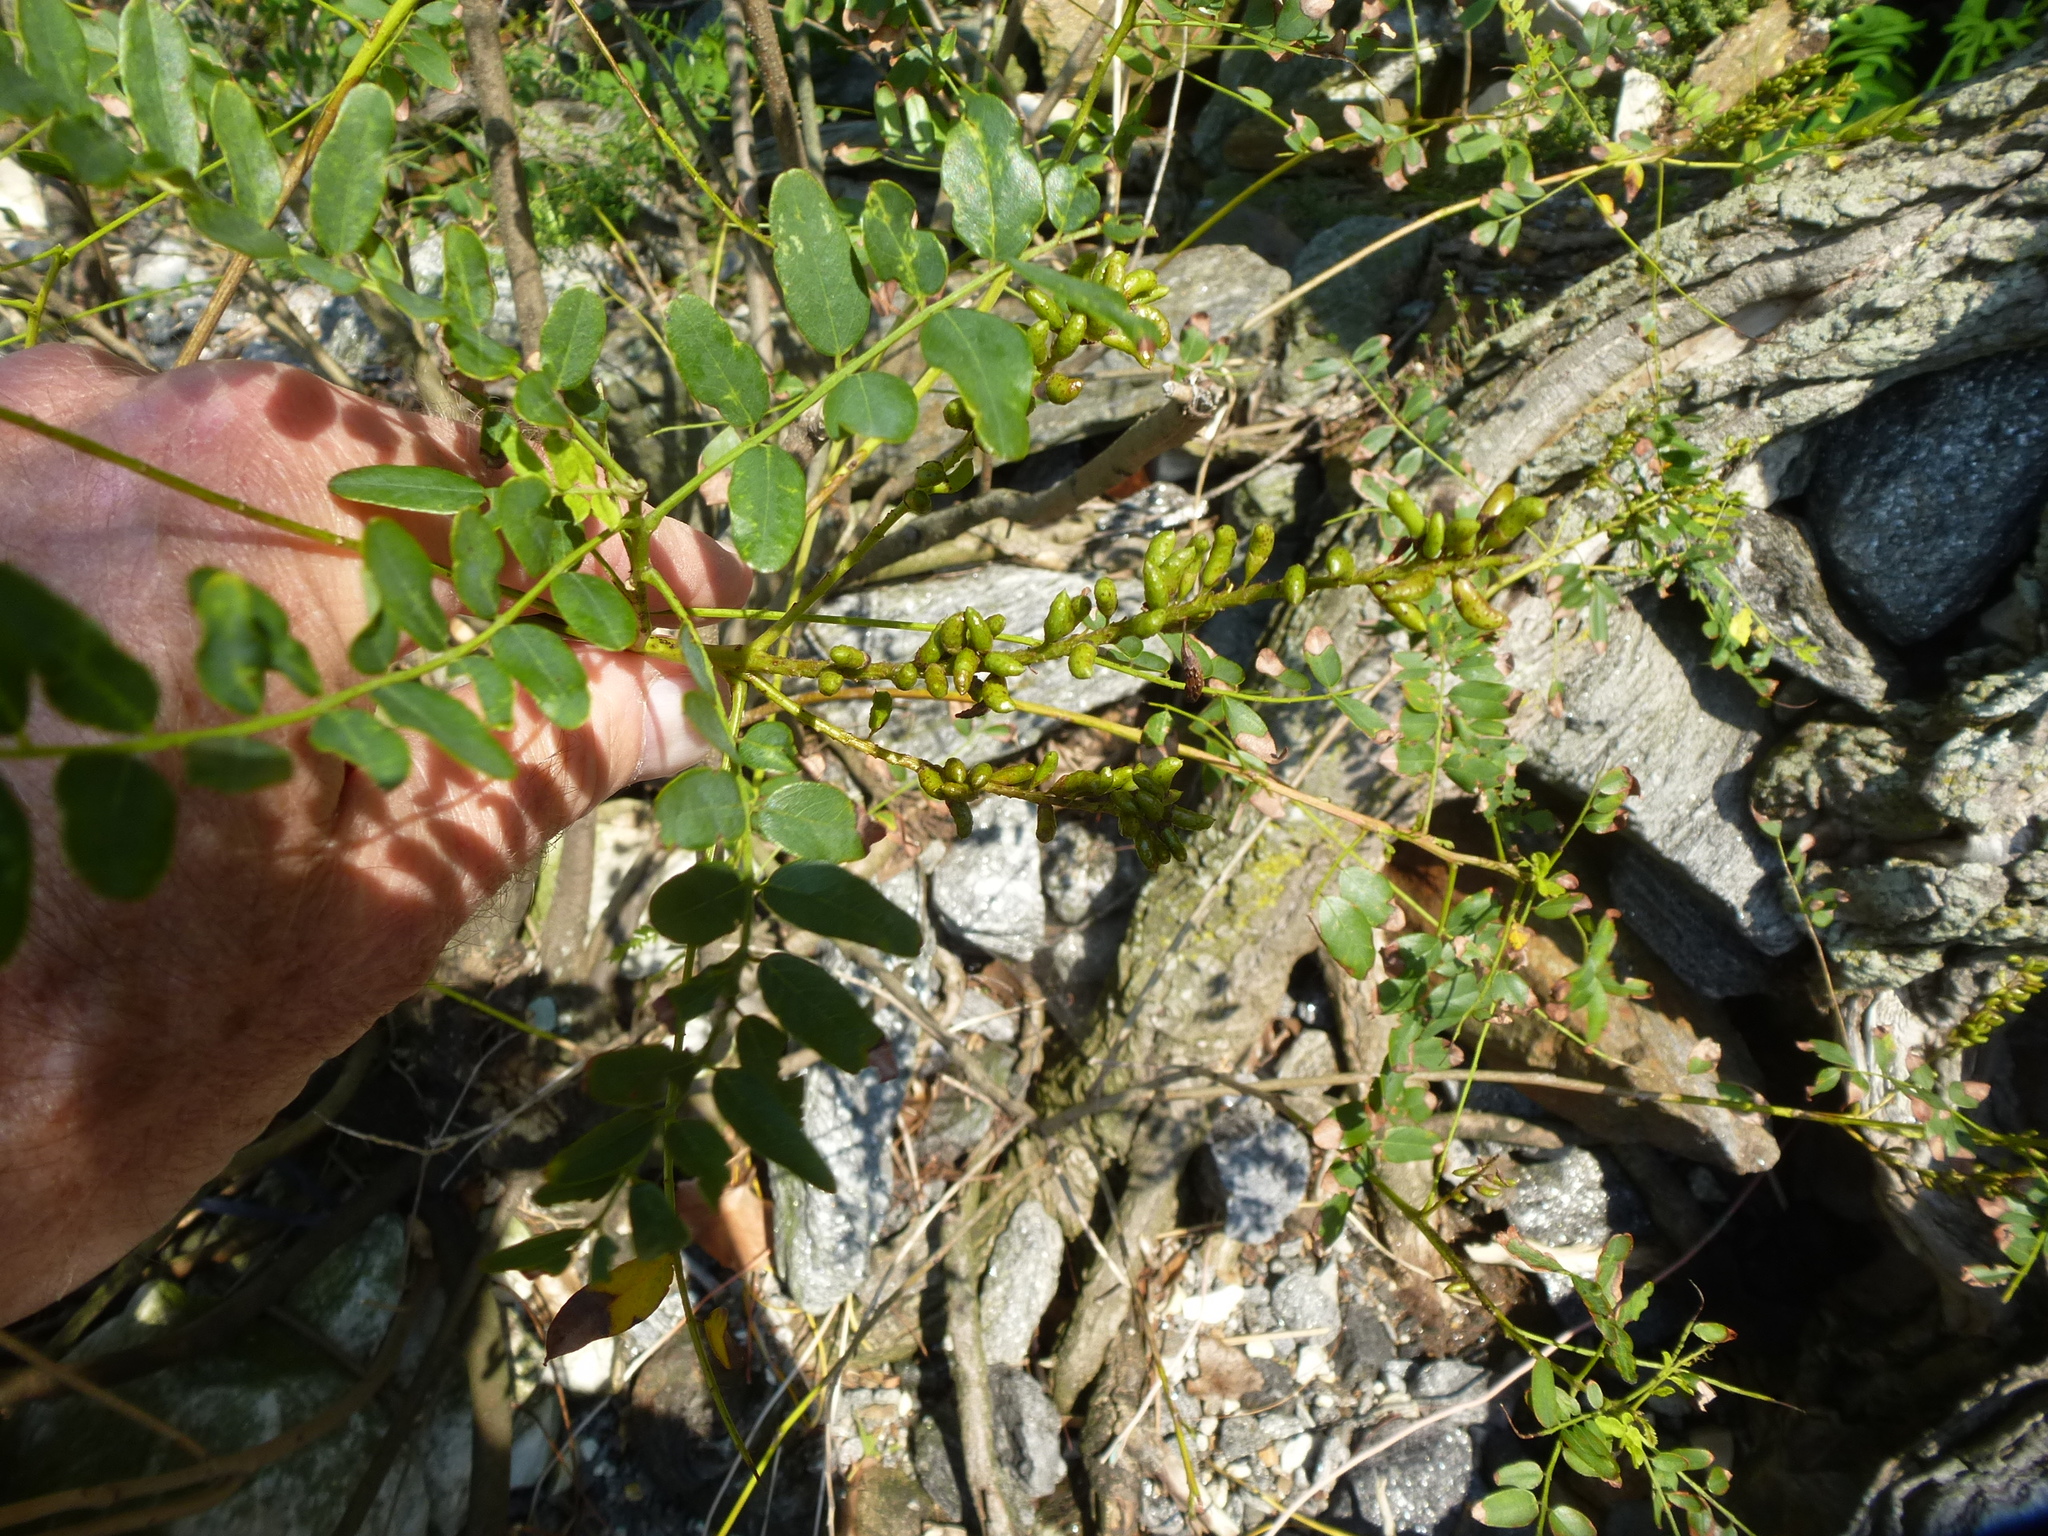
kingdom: Plantae
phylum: Tracheophyta
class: Magnoliopsida
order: Fabales
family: Fabaceae
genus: Amorpha
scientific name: Amorpha fruticosa
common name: False indigo
